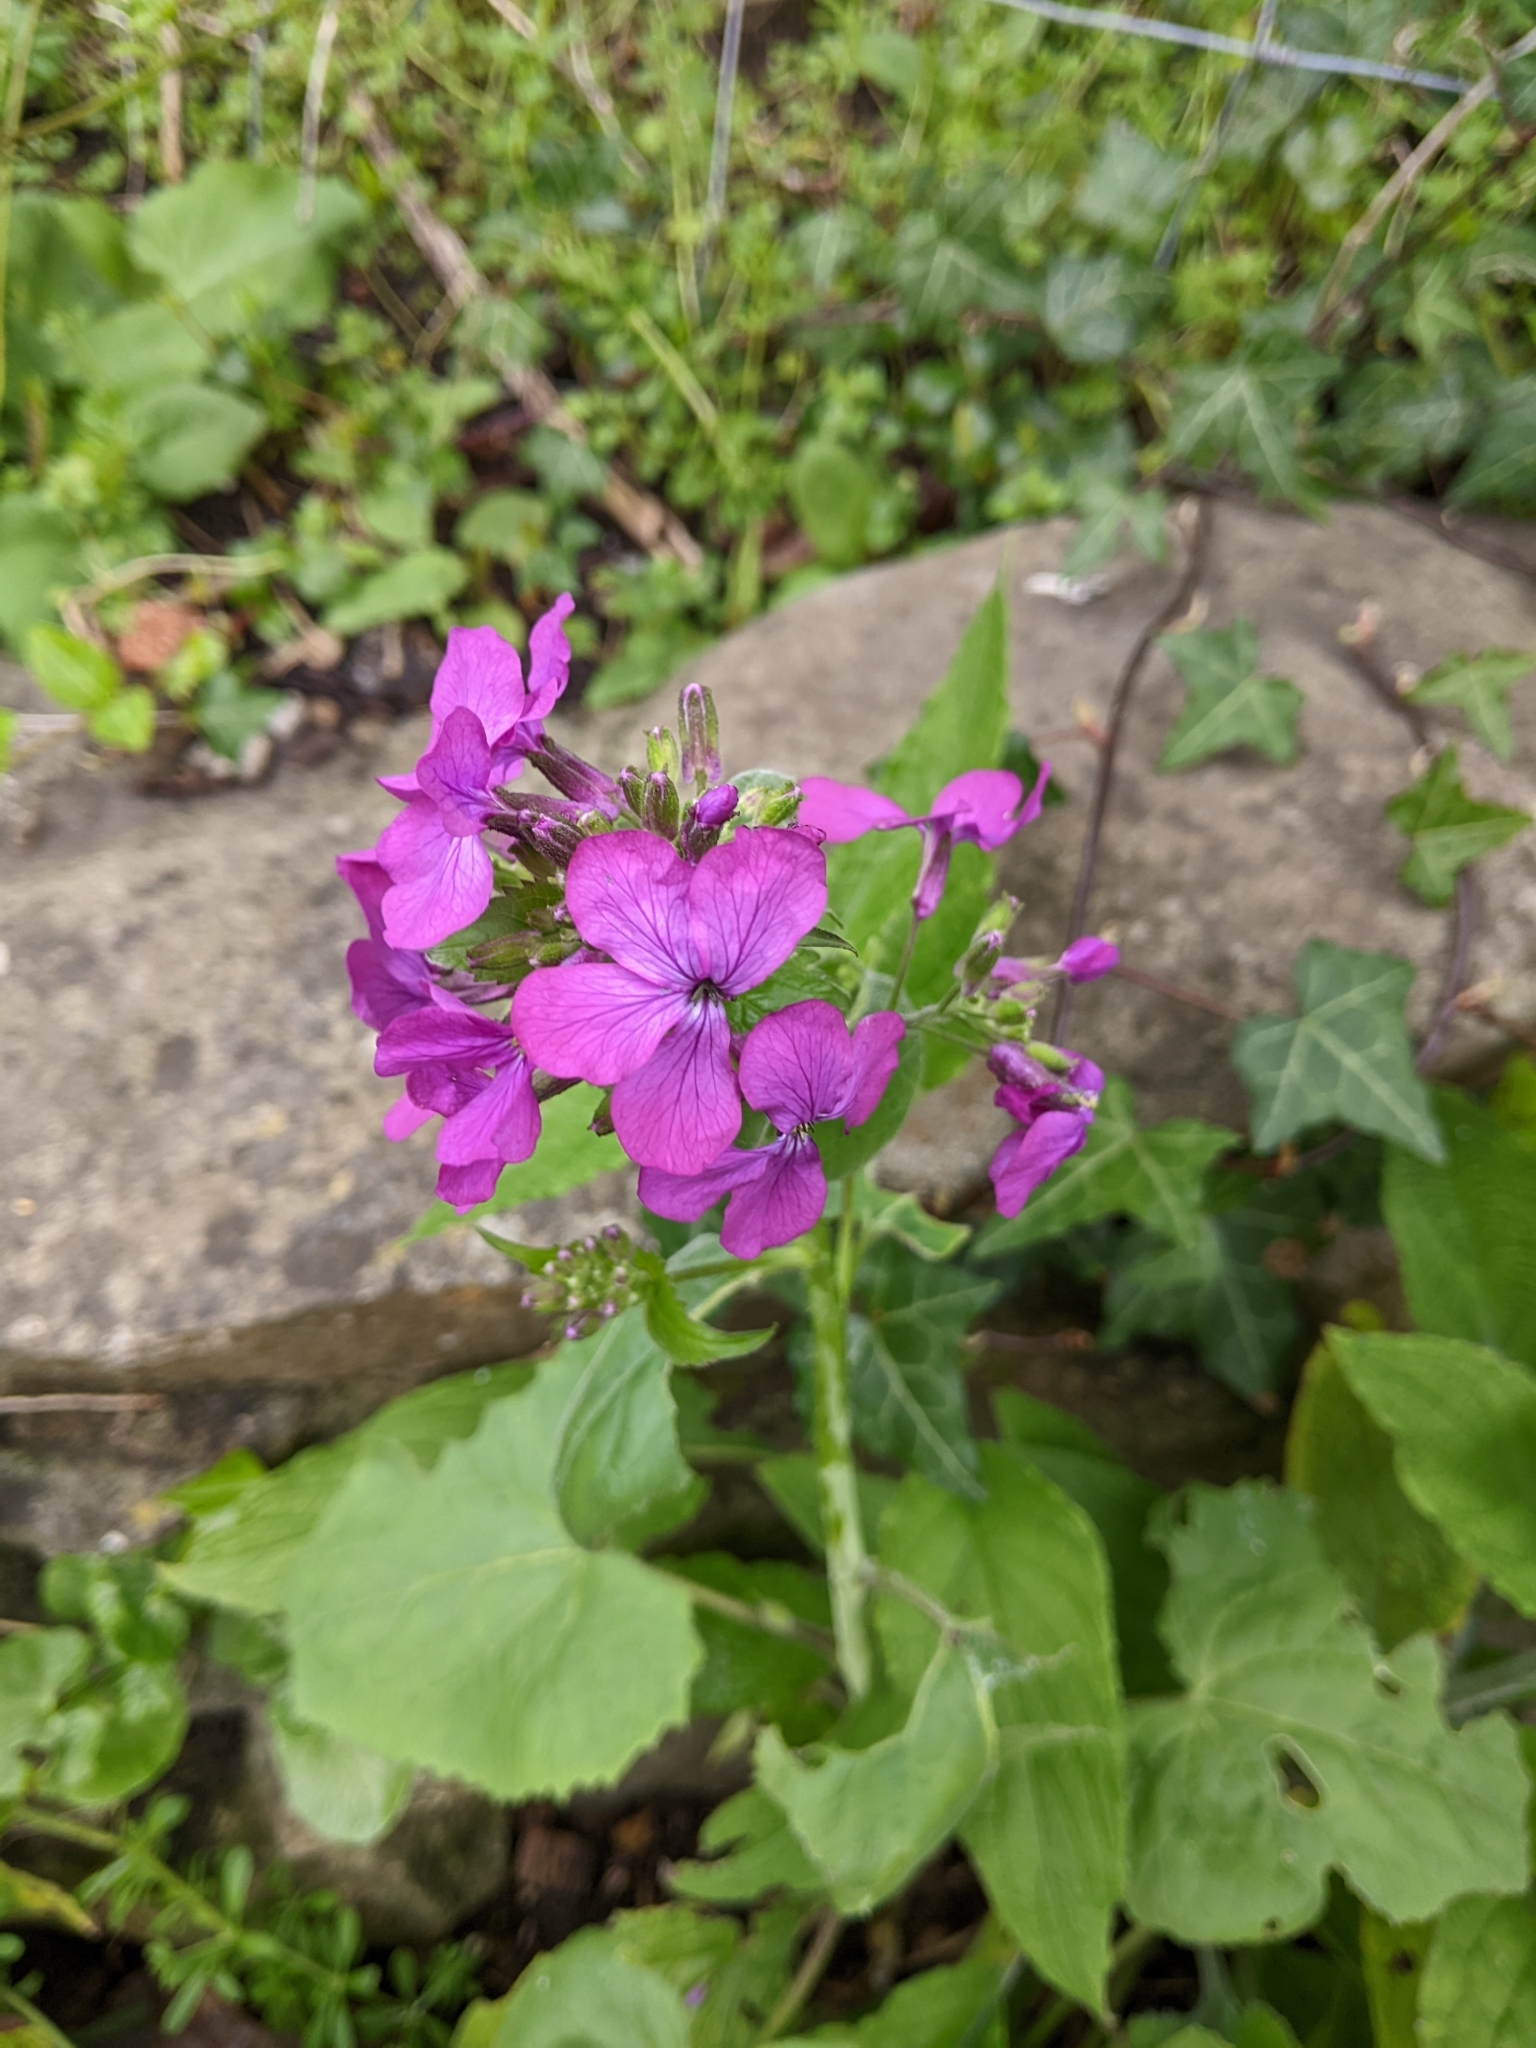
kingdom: Plantae
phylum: Tracheophyta
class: Magnoliopsida
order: Brassicales
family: Brassicaceae
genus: Lunaria
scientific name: Lunaria annua
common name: Honesty
